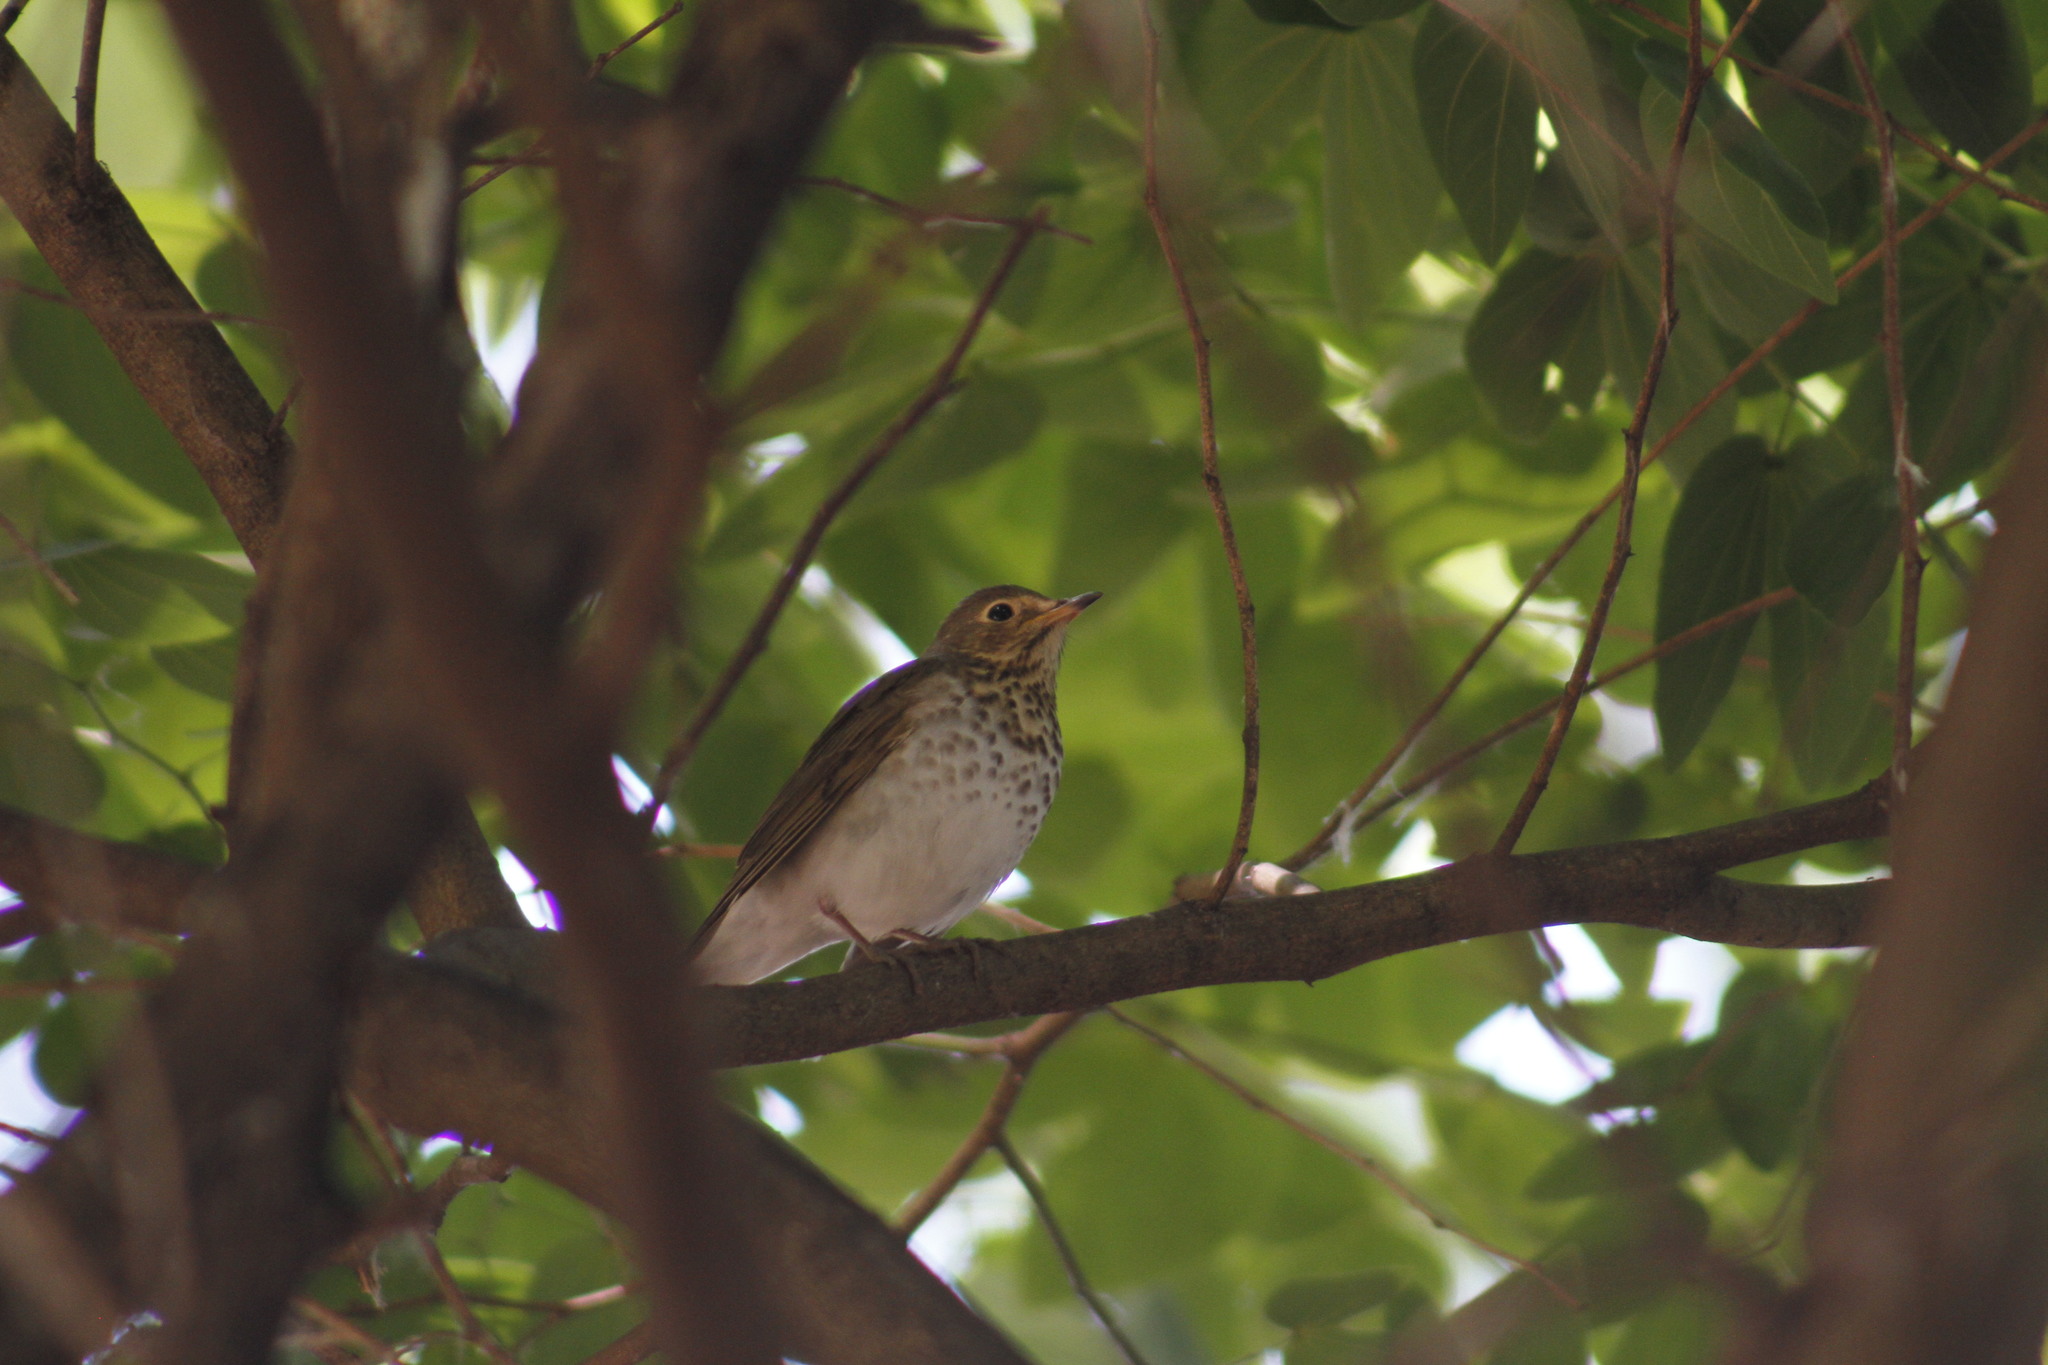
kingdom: Animalia
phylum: Chordata
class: Aves
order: Passeriformes
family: Turdidae
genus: Catharus
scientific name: Catharus ustulatus
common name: Swainson's thrush
